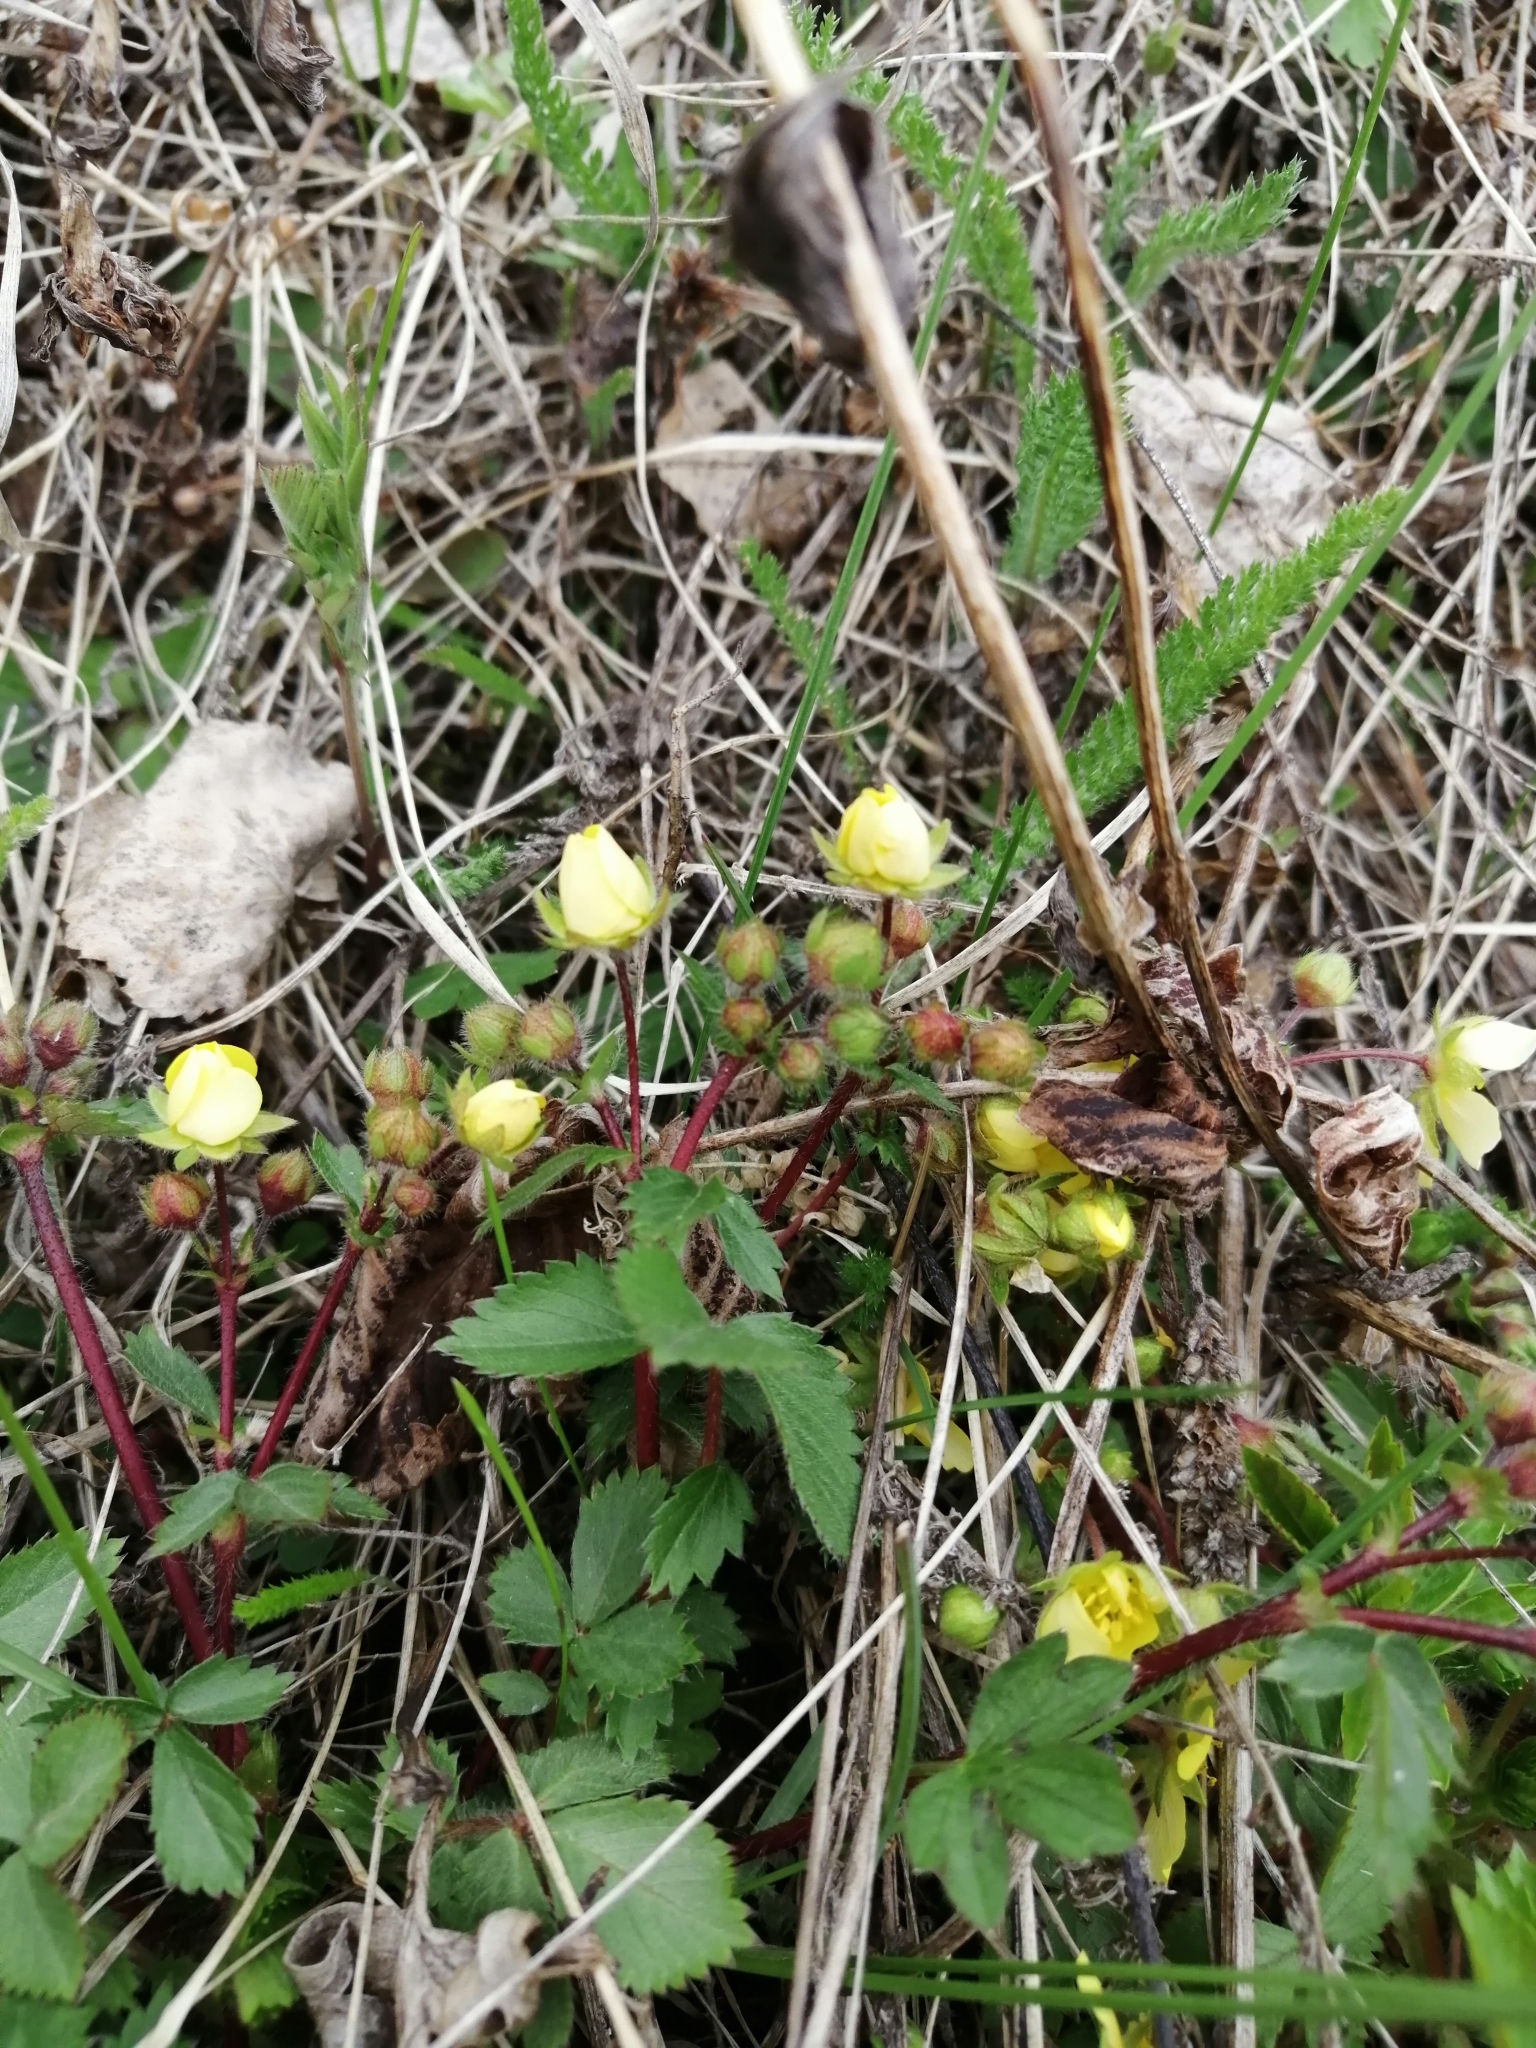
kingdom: Plantae
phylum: Tracheophyta
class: Magnoliopsida
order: Rosales
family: Rosaceae
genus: Potentilla
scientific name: Potentilla fragarioides
